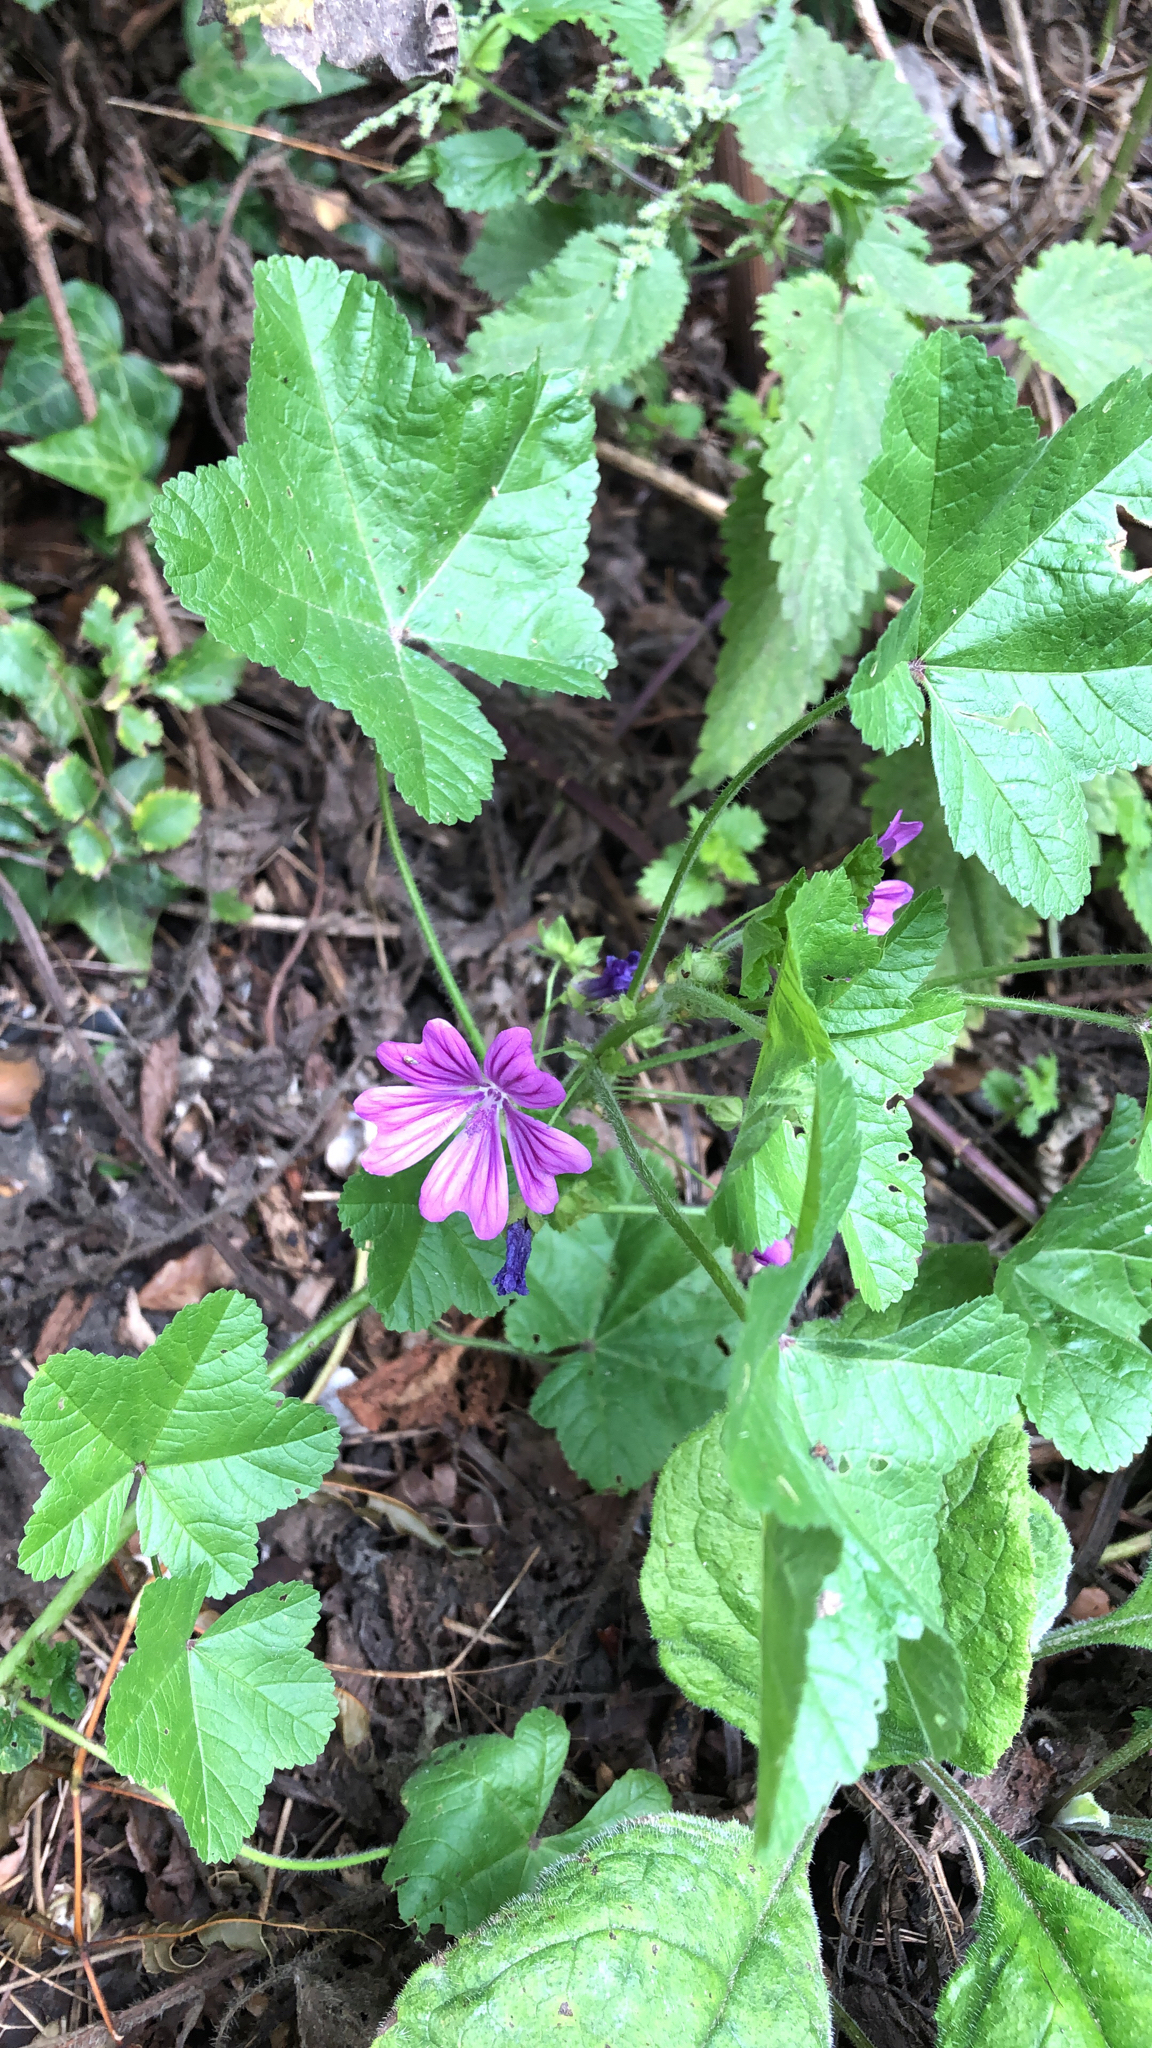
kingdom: Plantae
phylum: Tracheophyta
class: Magnoliopsida
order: Malvales
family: Malvaceae
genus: Malva
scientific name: Malva sylvestris
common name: Common mallow
